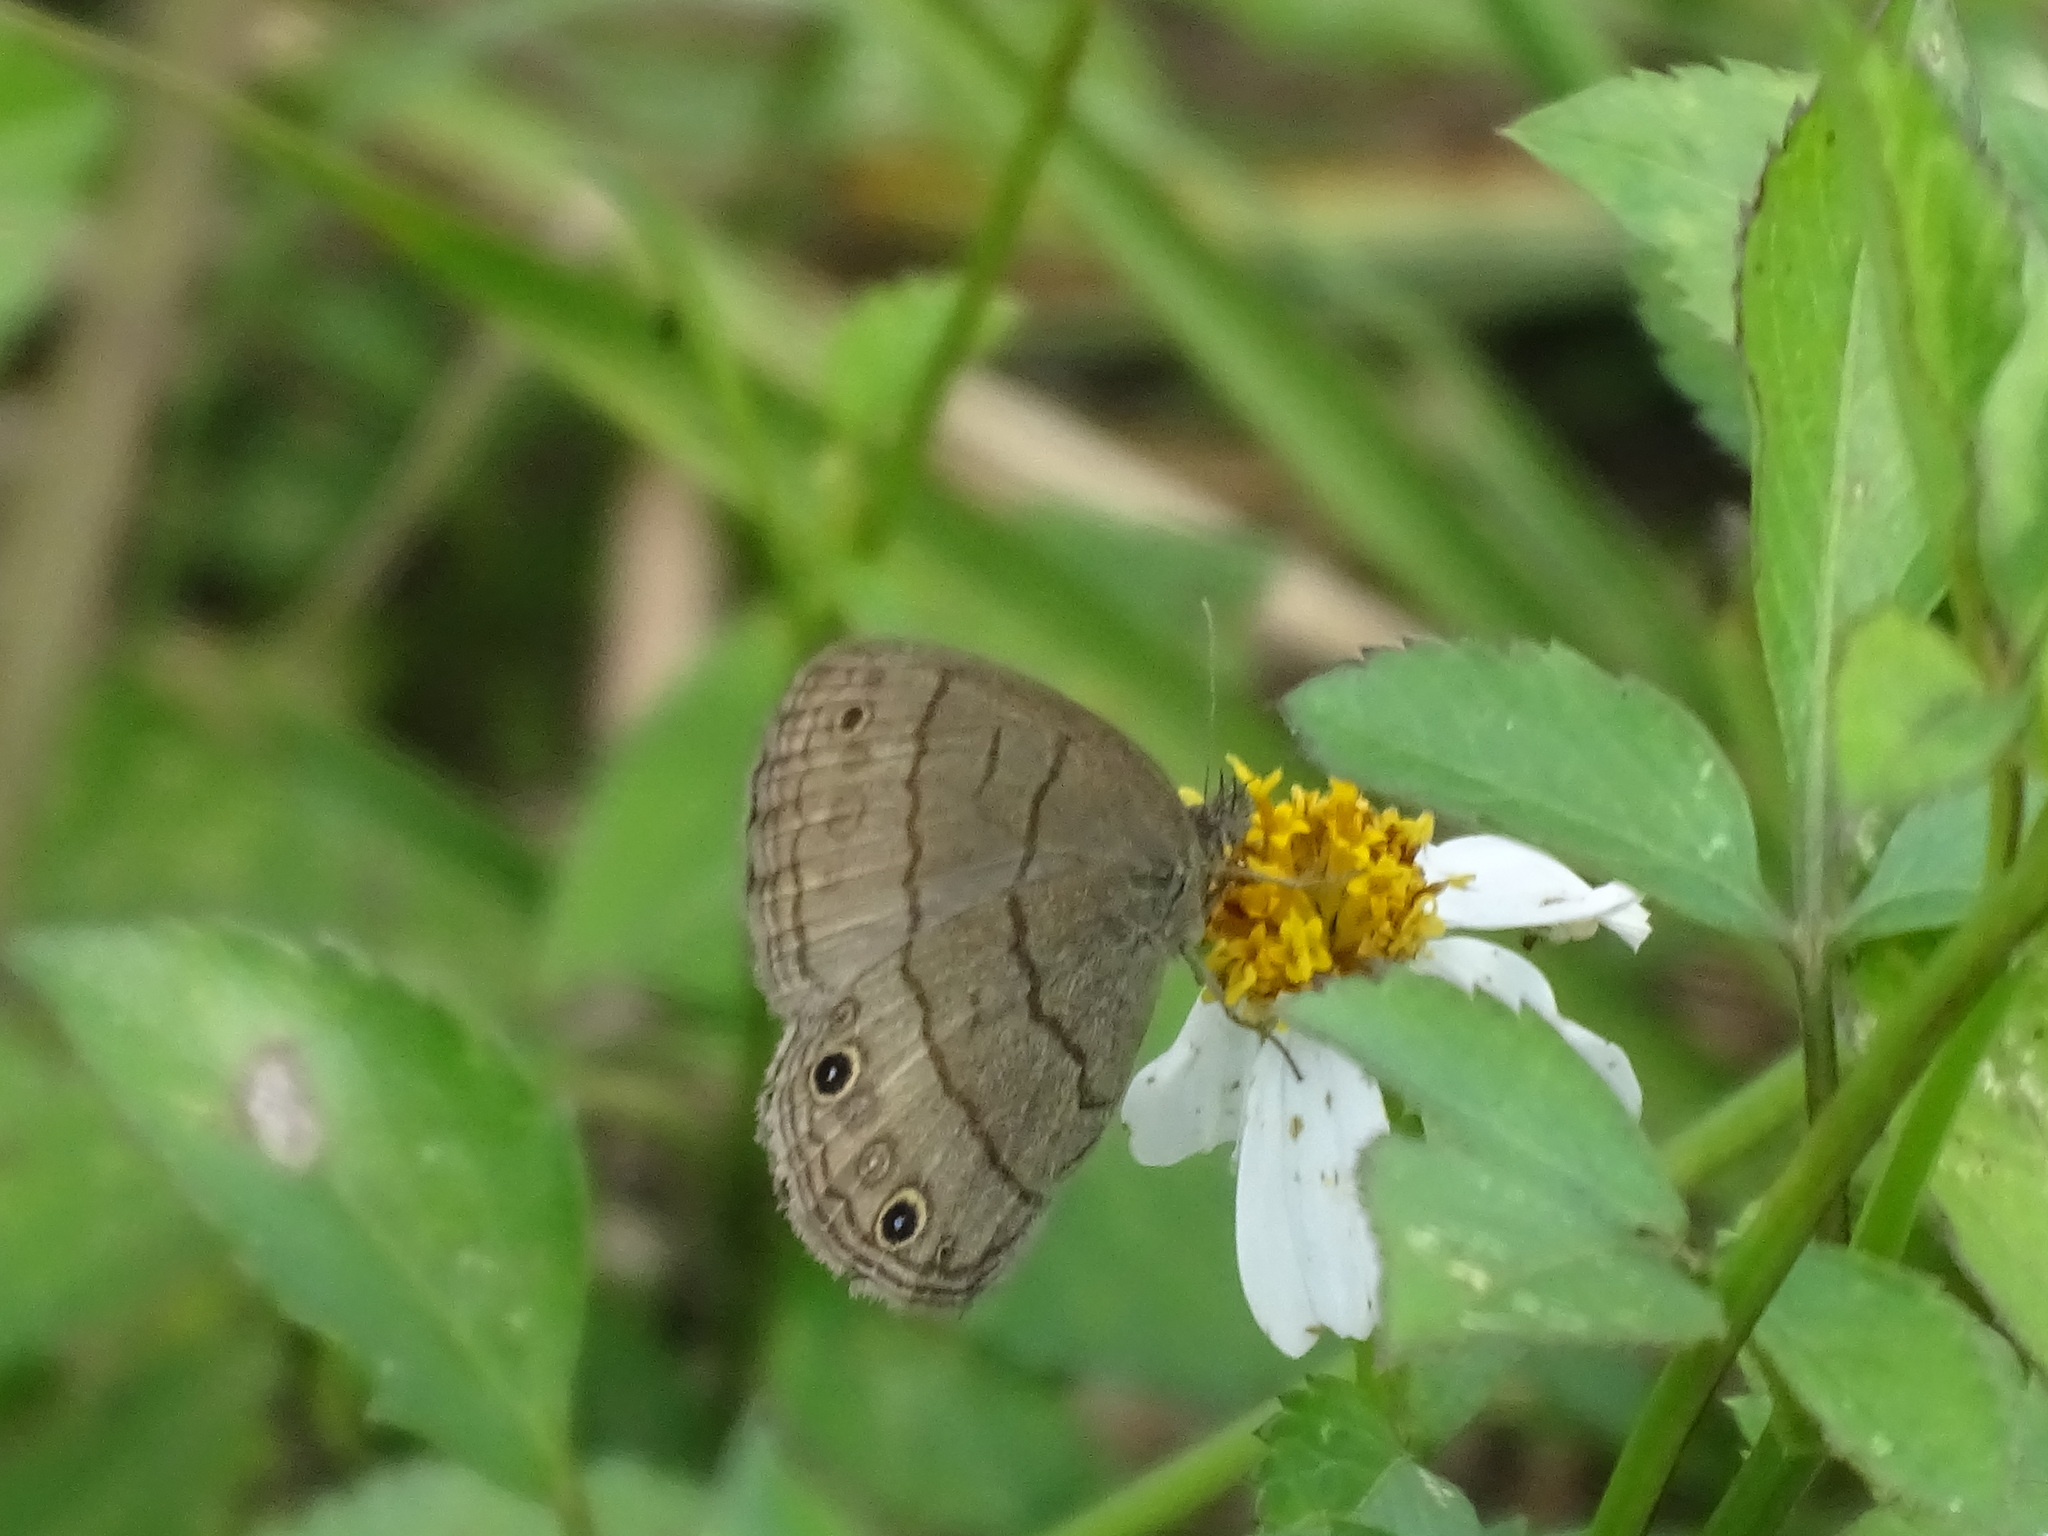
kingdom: Animalia
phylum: Arthropoda
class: Insecta
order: Lepidoptera
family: Nymphalidae
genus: Hermeuptychia
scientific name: Hermeuptychia hermes
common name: Hermes satyr
